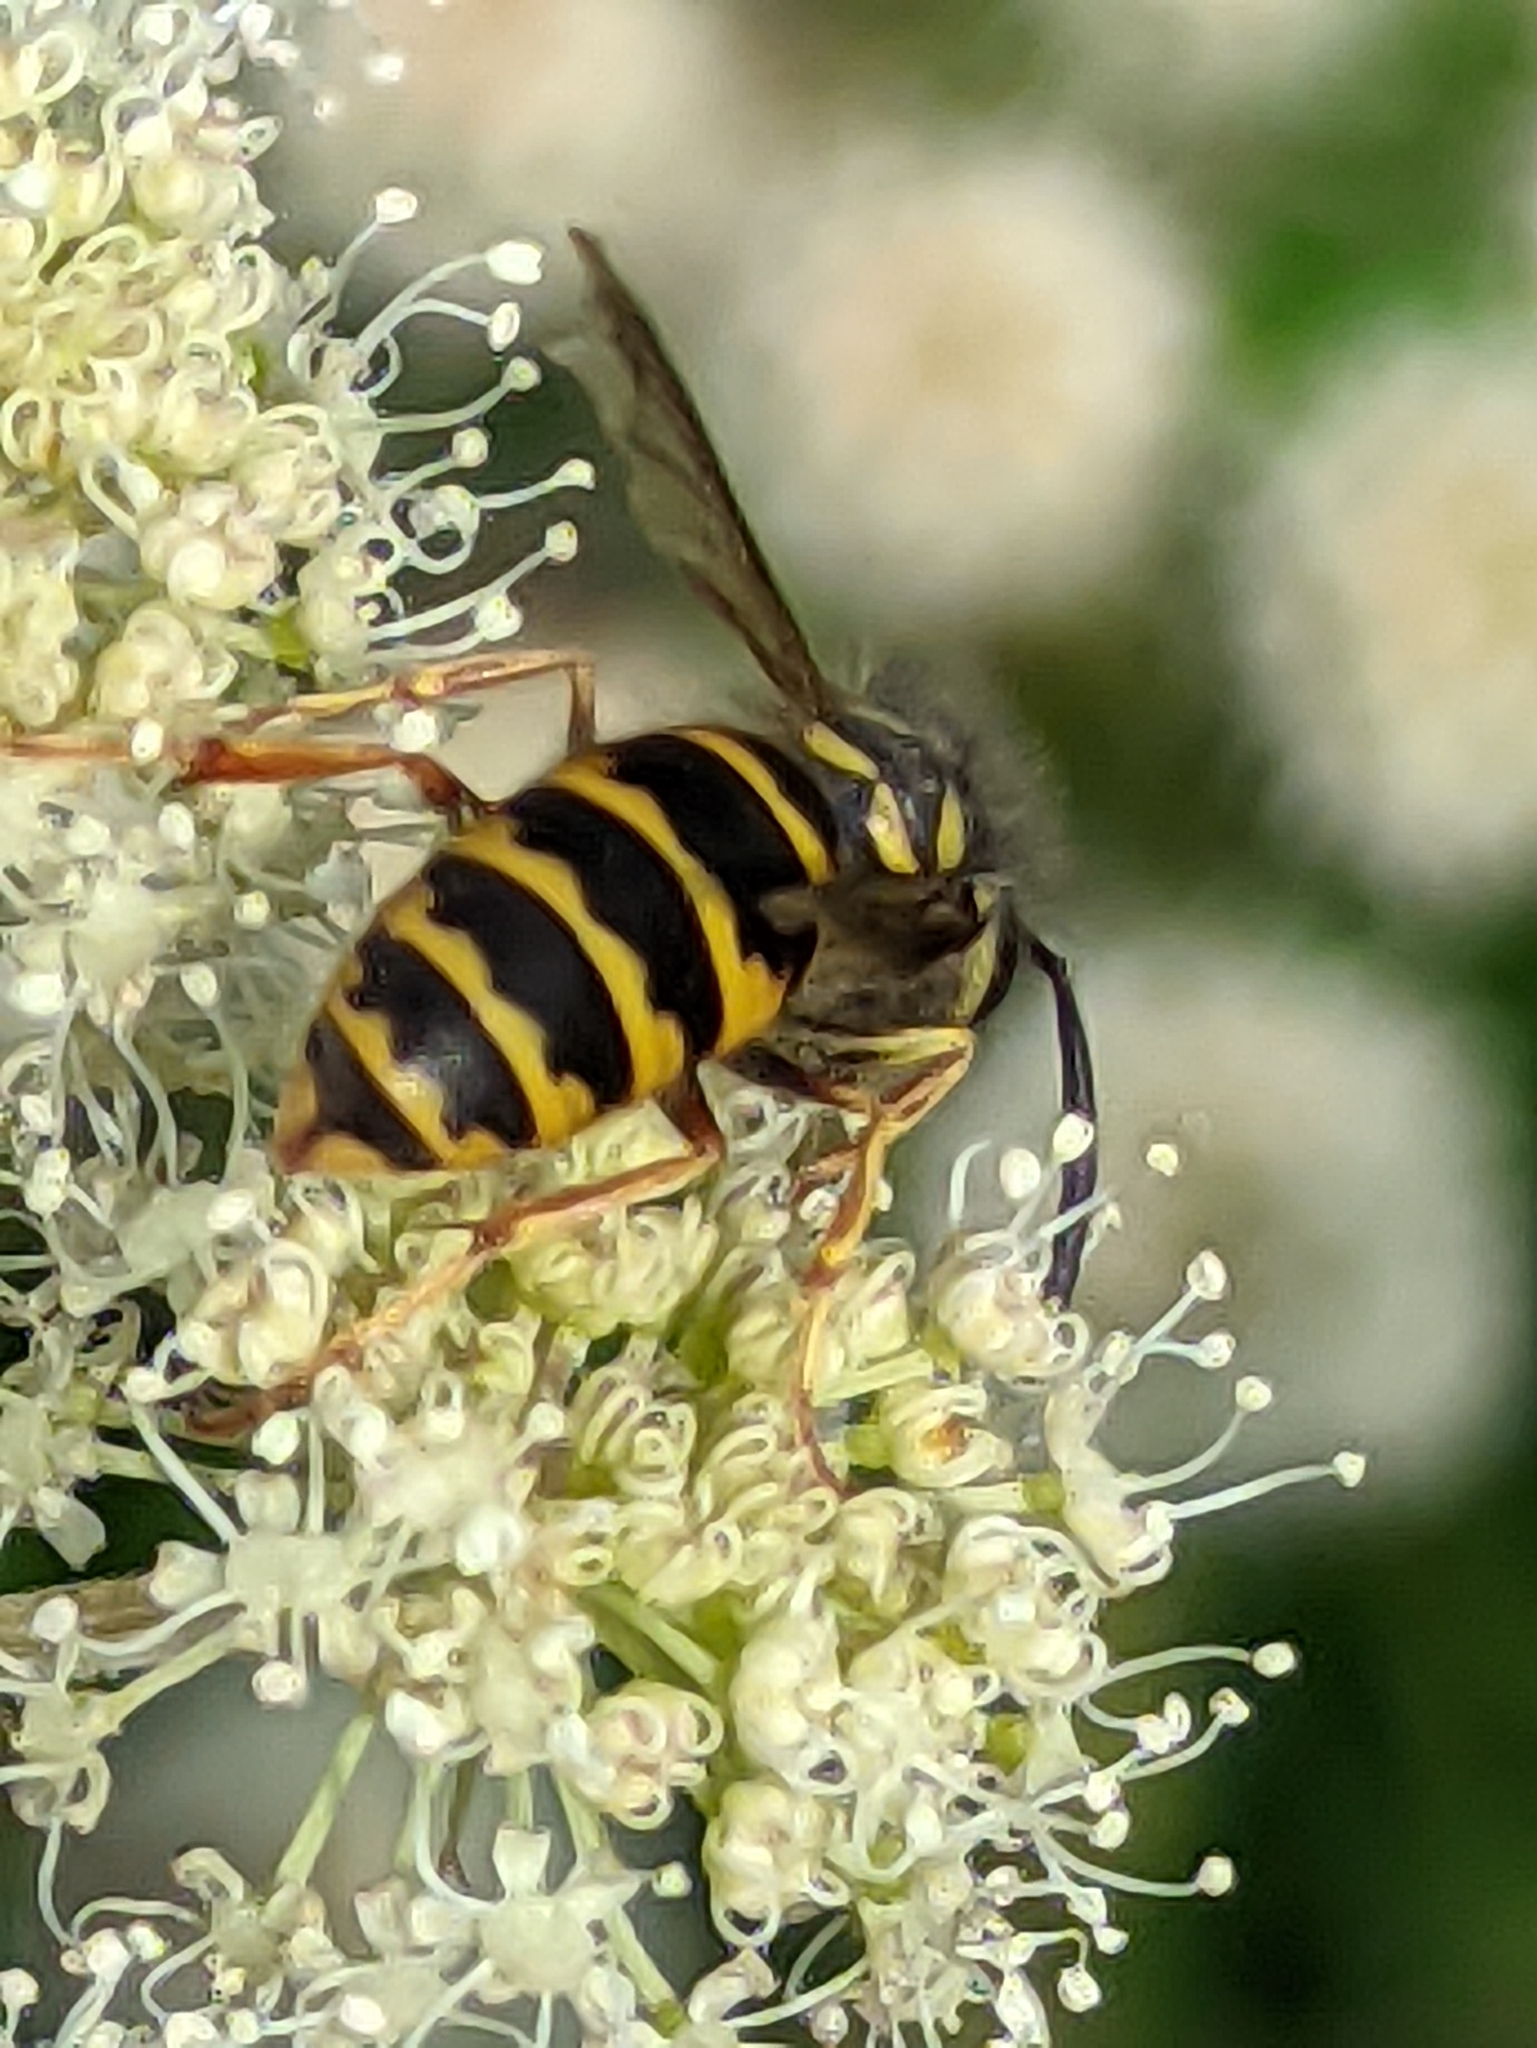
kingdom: Animalia
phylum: Arthropoda
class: Insecta
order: Hymenoptera
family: Vespidae
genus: Vespula
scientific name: Vespula vulgaris
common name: Common wasp
